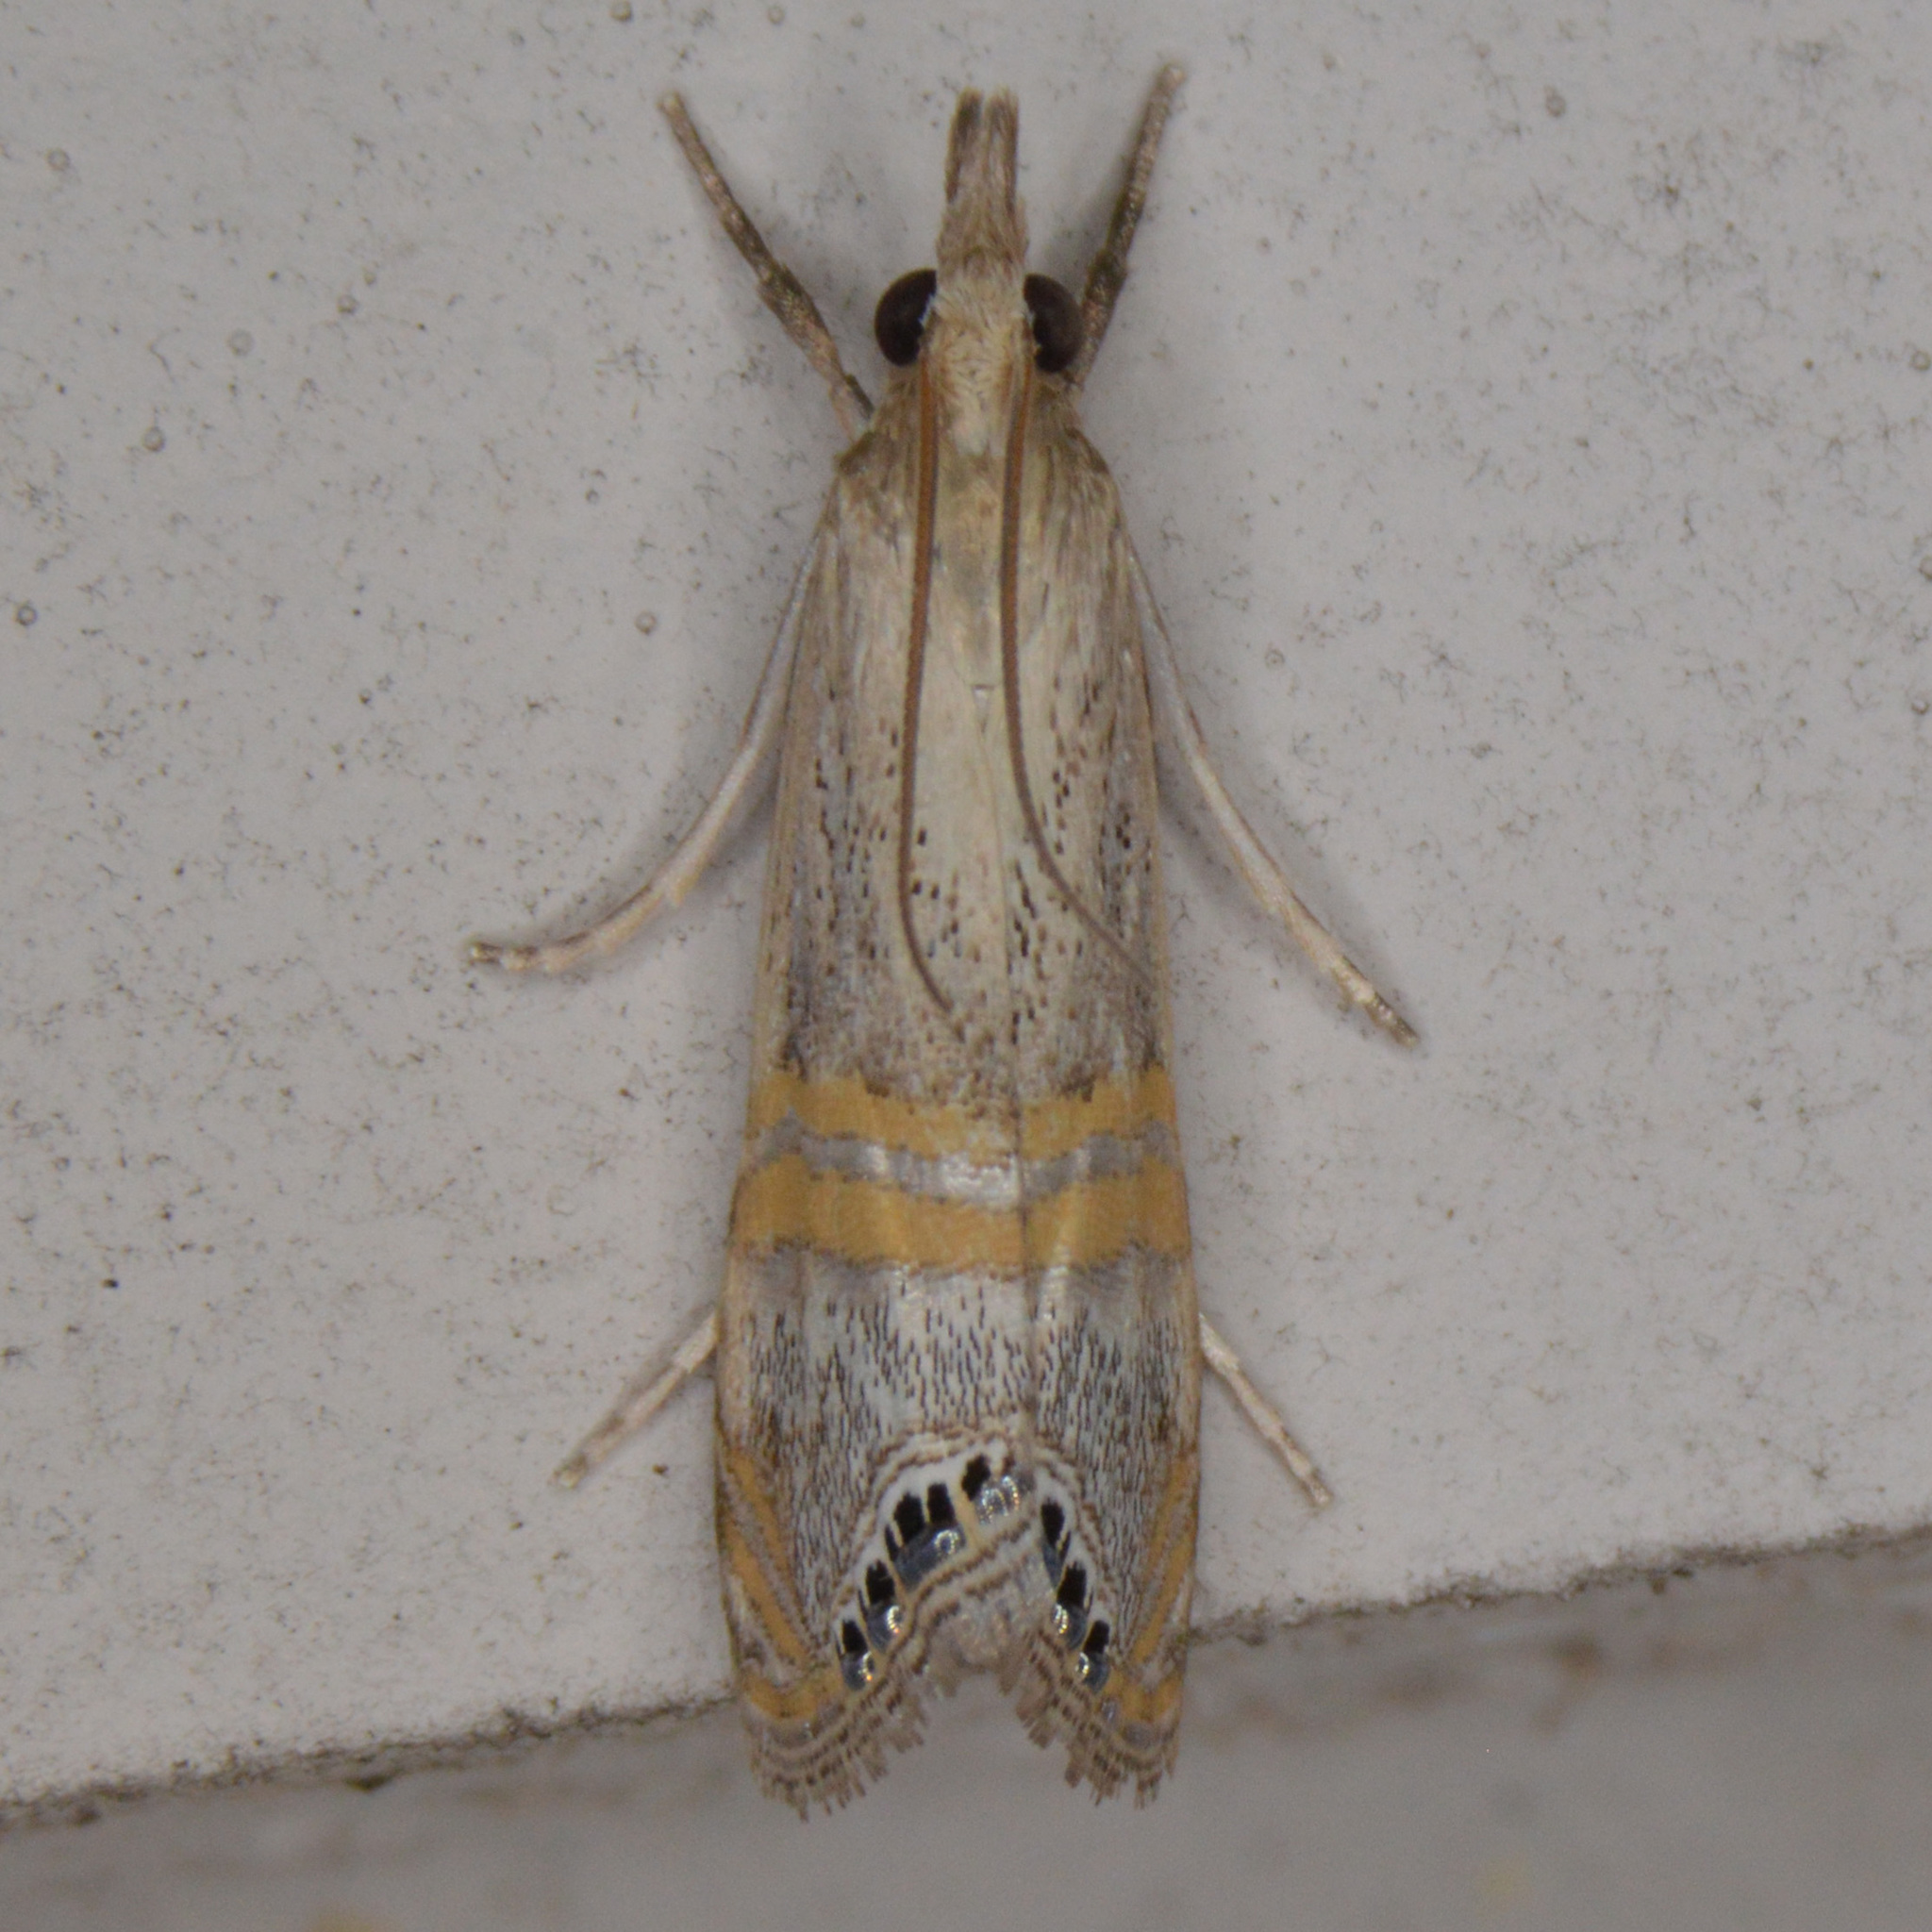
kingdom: Animalia
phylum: Arthropoda
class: Insecta
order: Lepidoptera
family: Crambidae
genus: Euchromius
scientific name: Euchromius ocellea
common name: Necklace veneer moth
